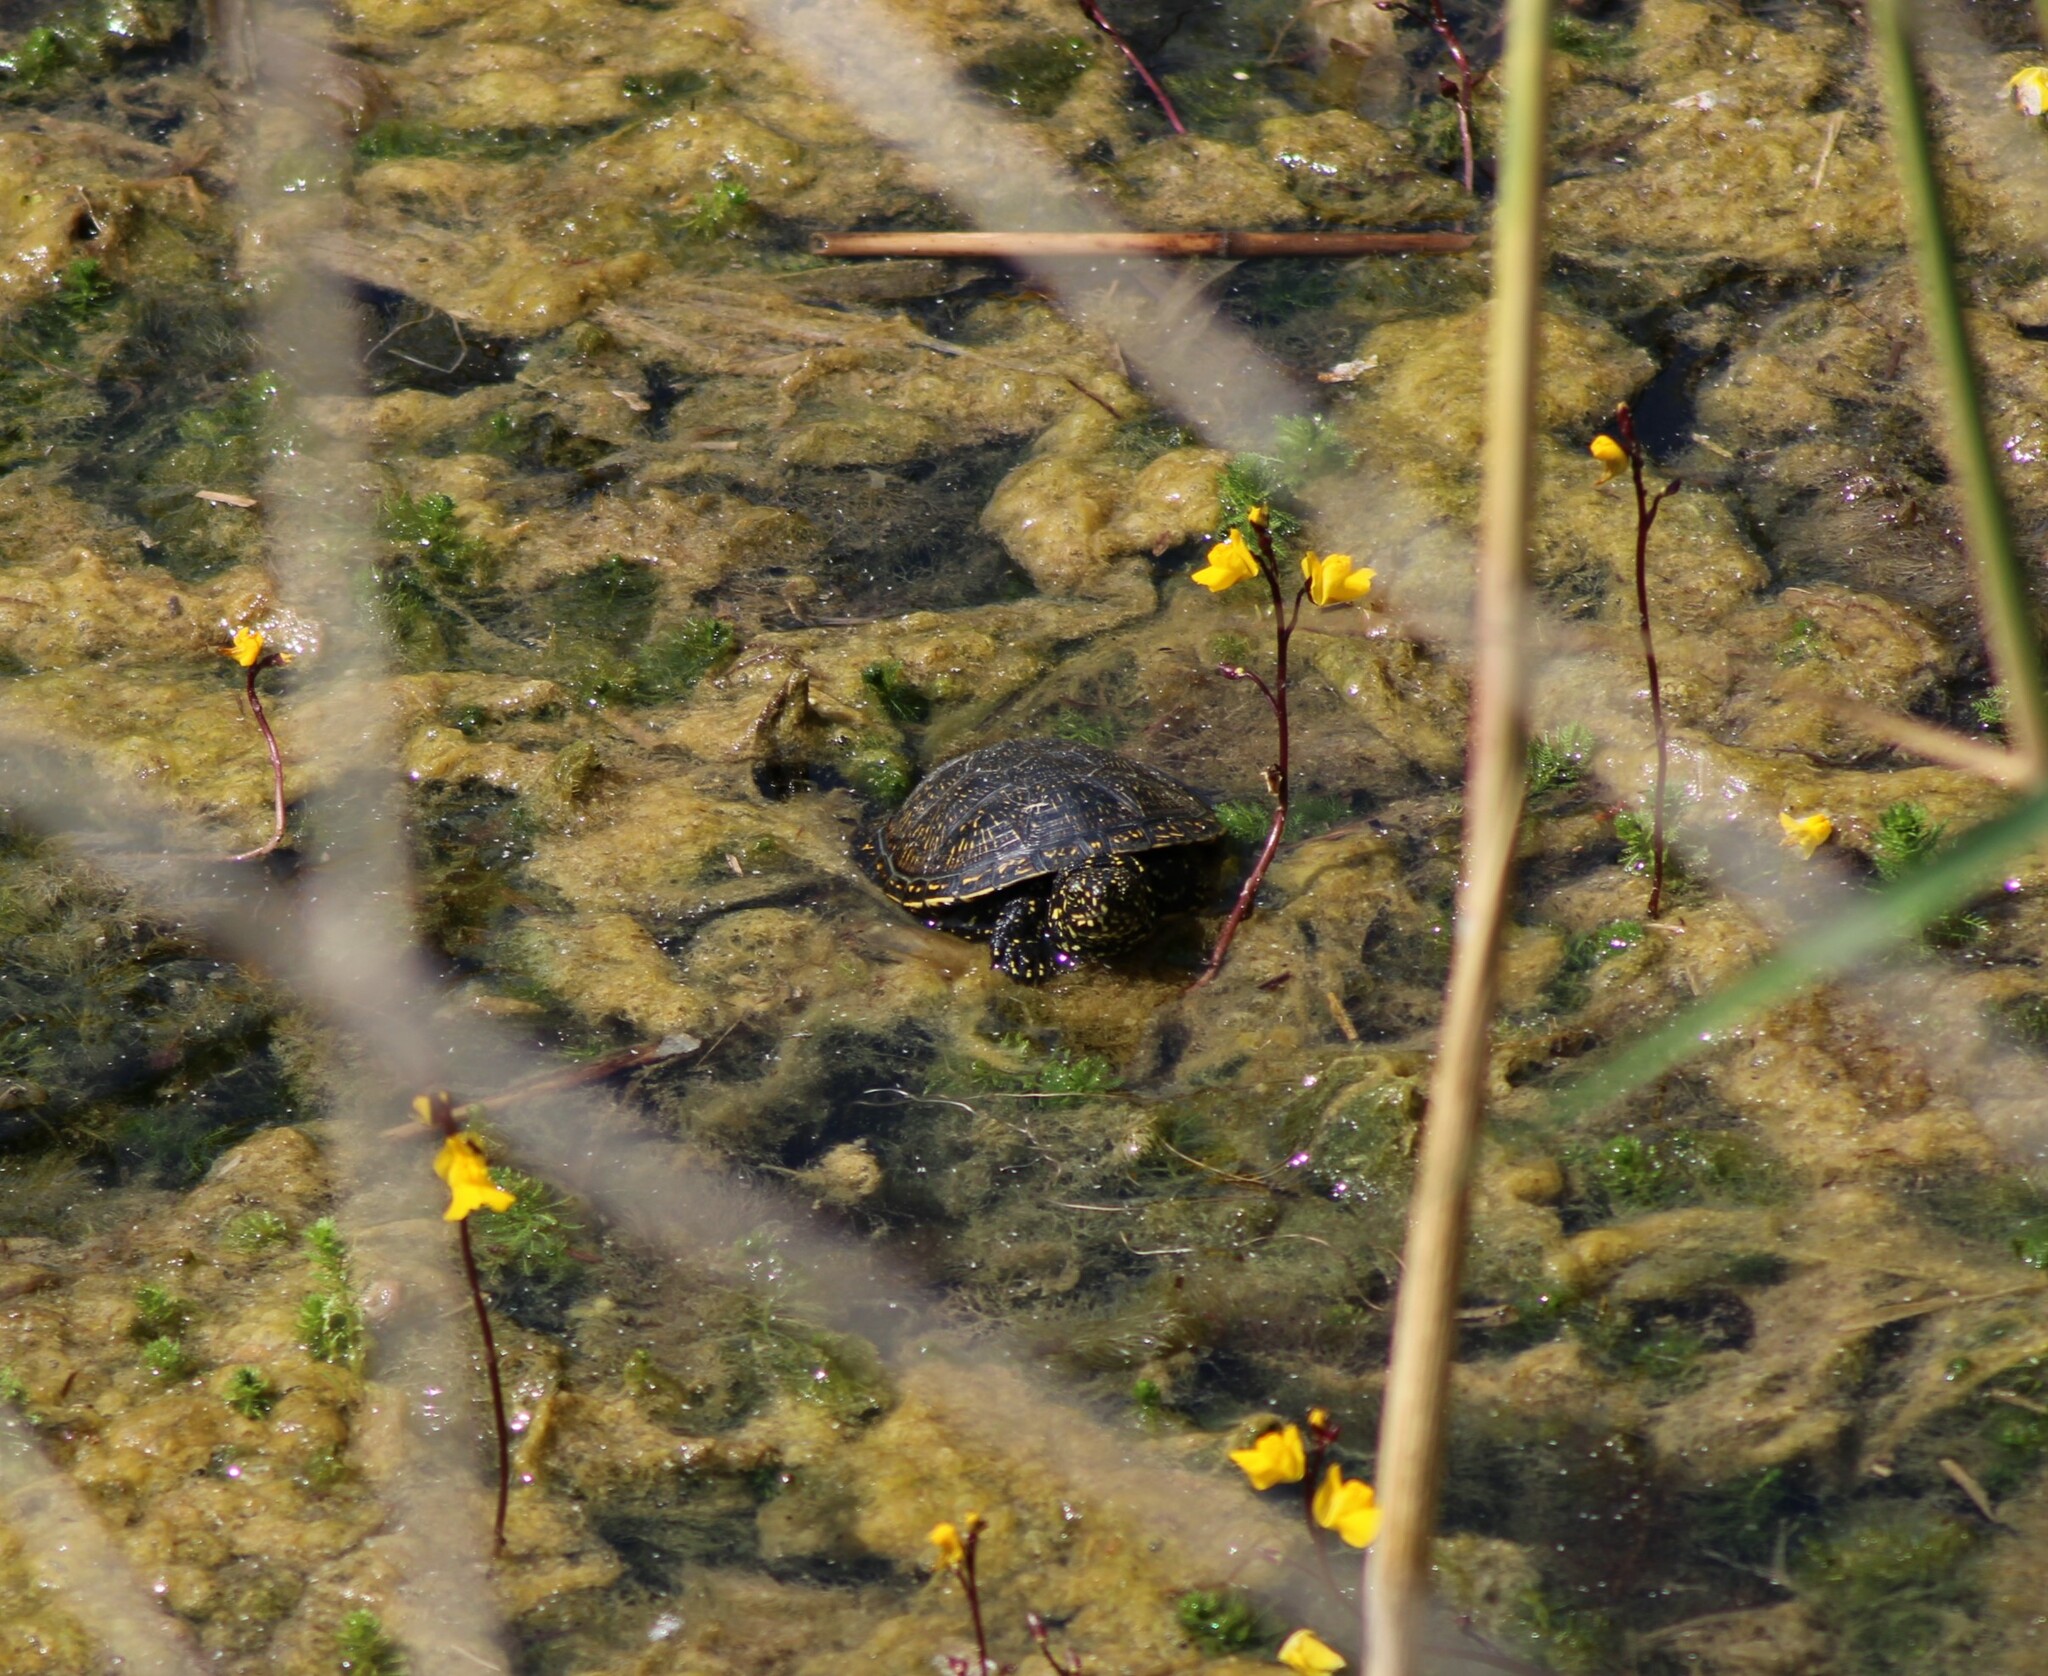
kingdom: Animalia
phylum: Chordata
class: Testudines
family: Emydidae
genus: Emys
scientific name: Emys orbicularis
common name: European pond turtle
